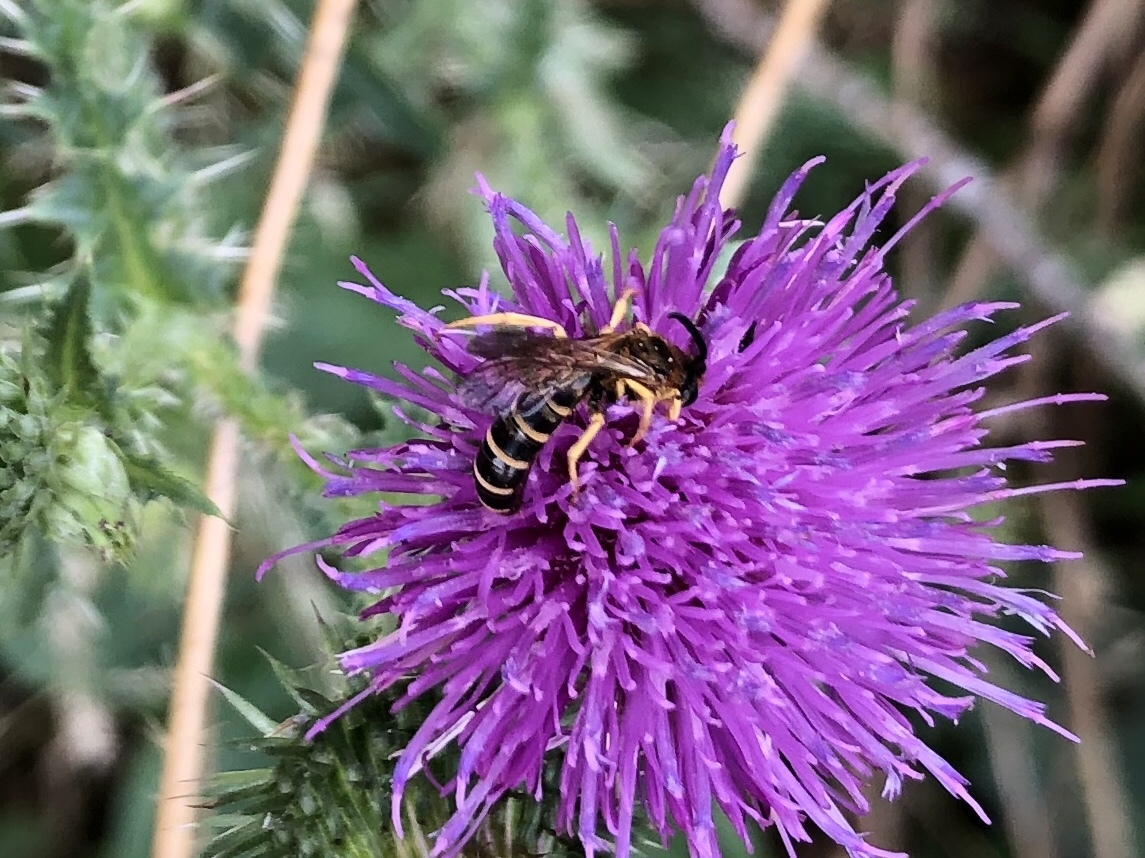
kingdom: Animalia
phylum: Arthropoda
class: Insecta
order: Hymenoptera
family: Halictidae
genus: Halictus
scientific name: Halictus scabiosae
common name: Great banded furrow bee
